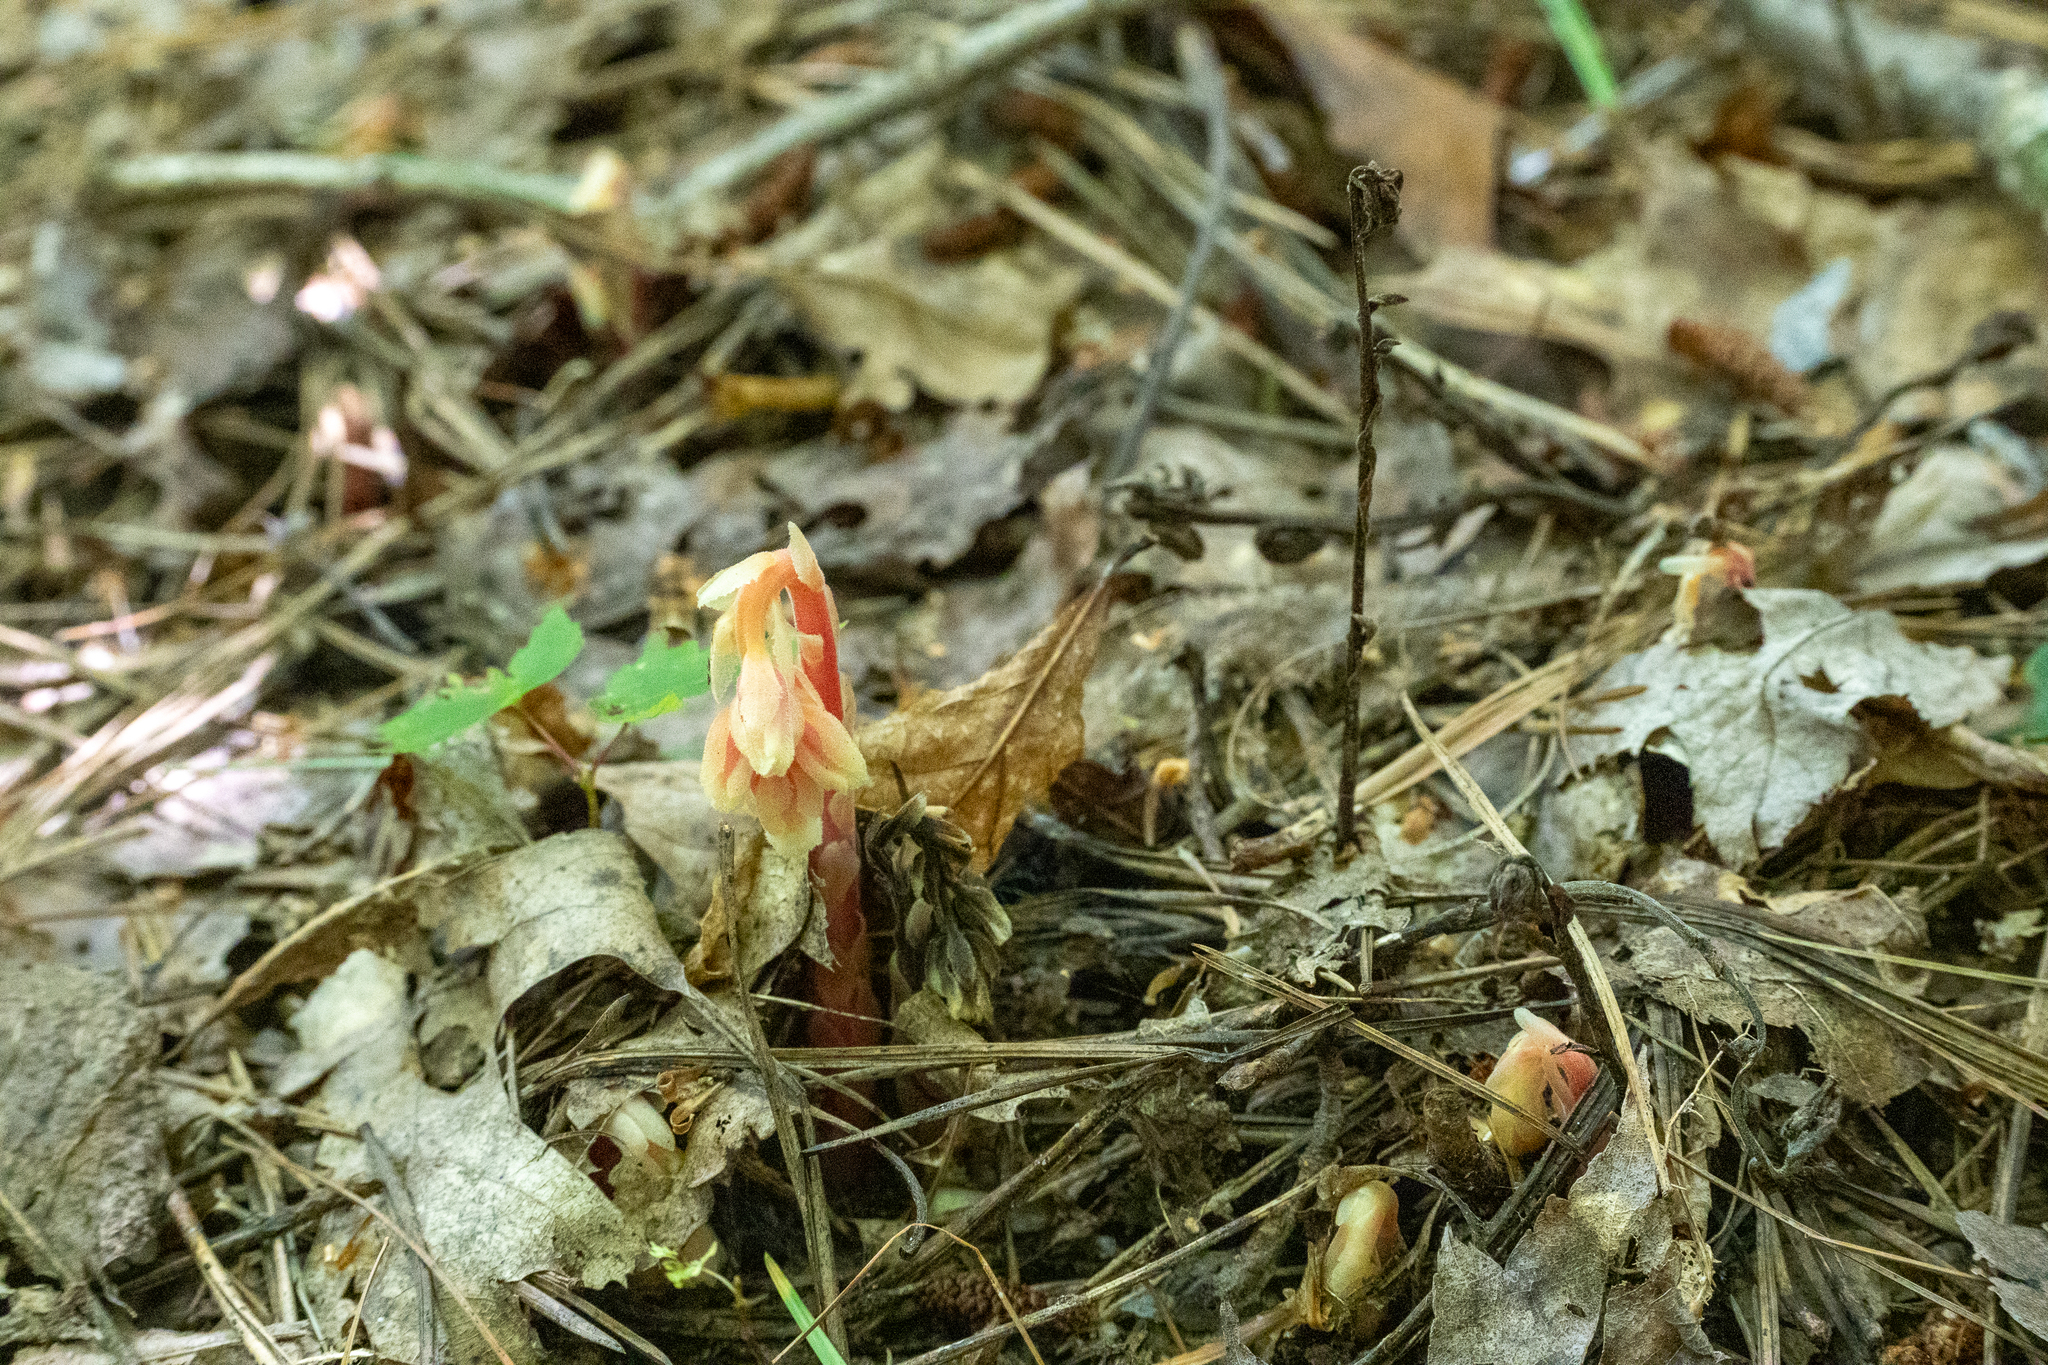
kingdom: Plantae
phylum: Tracheophyta
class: Magnoliopsida
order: Ericales
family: Ericaceae
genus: Hypopitys
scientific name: Hypopitys monotropa
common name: Yellow bird's-nest
